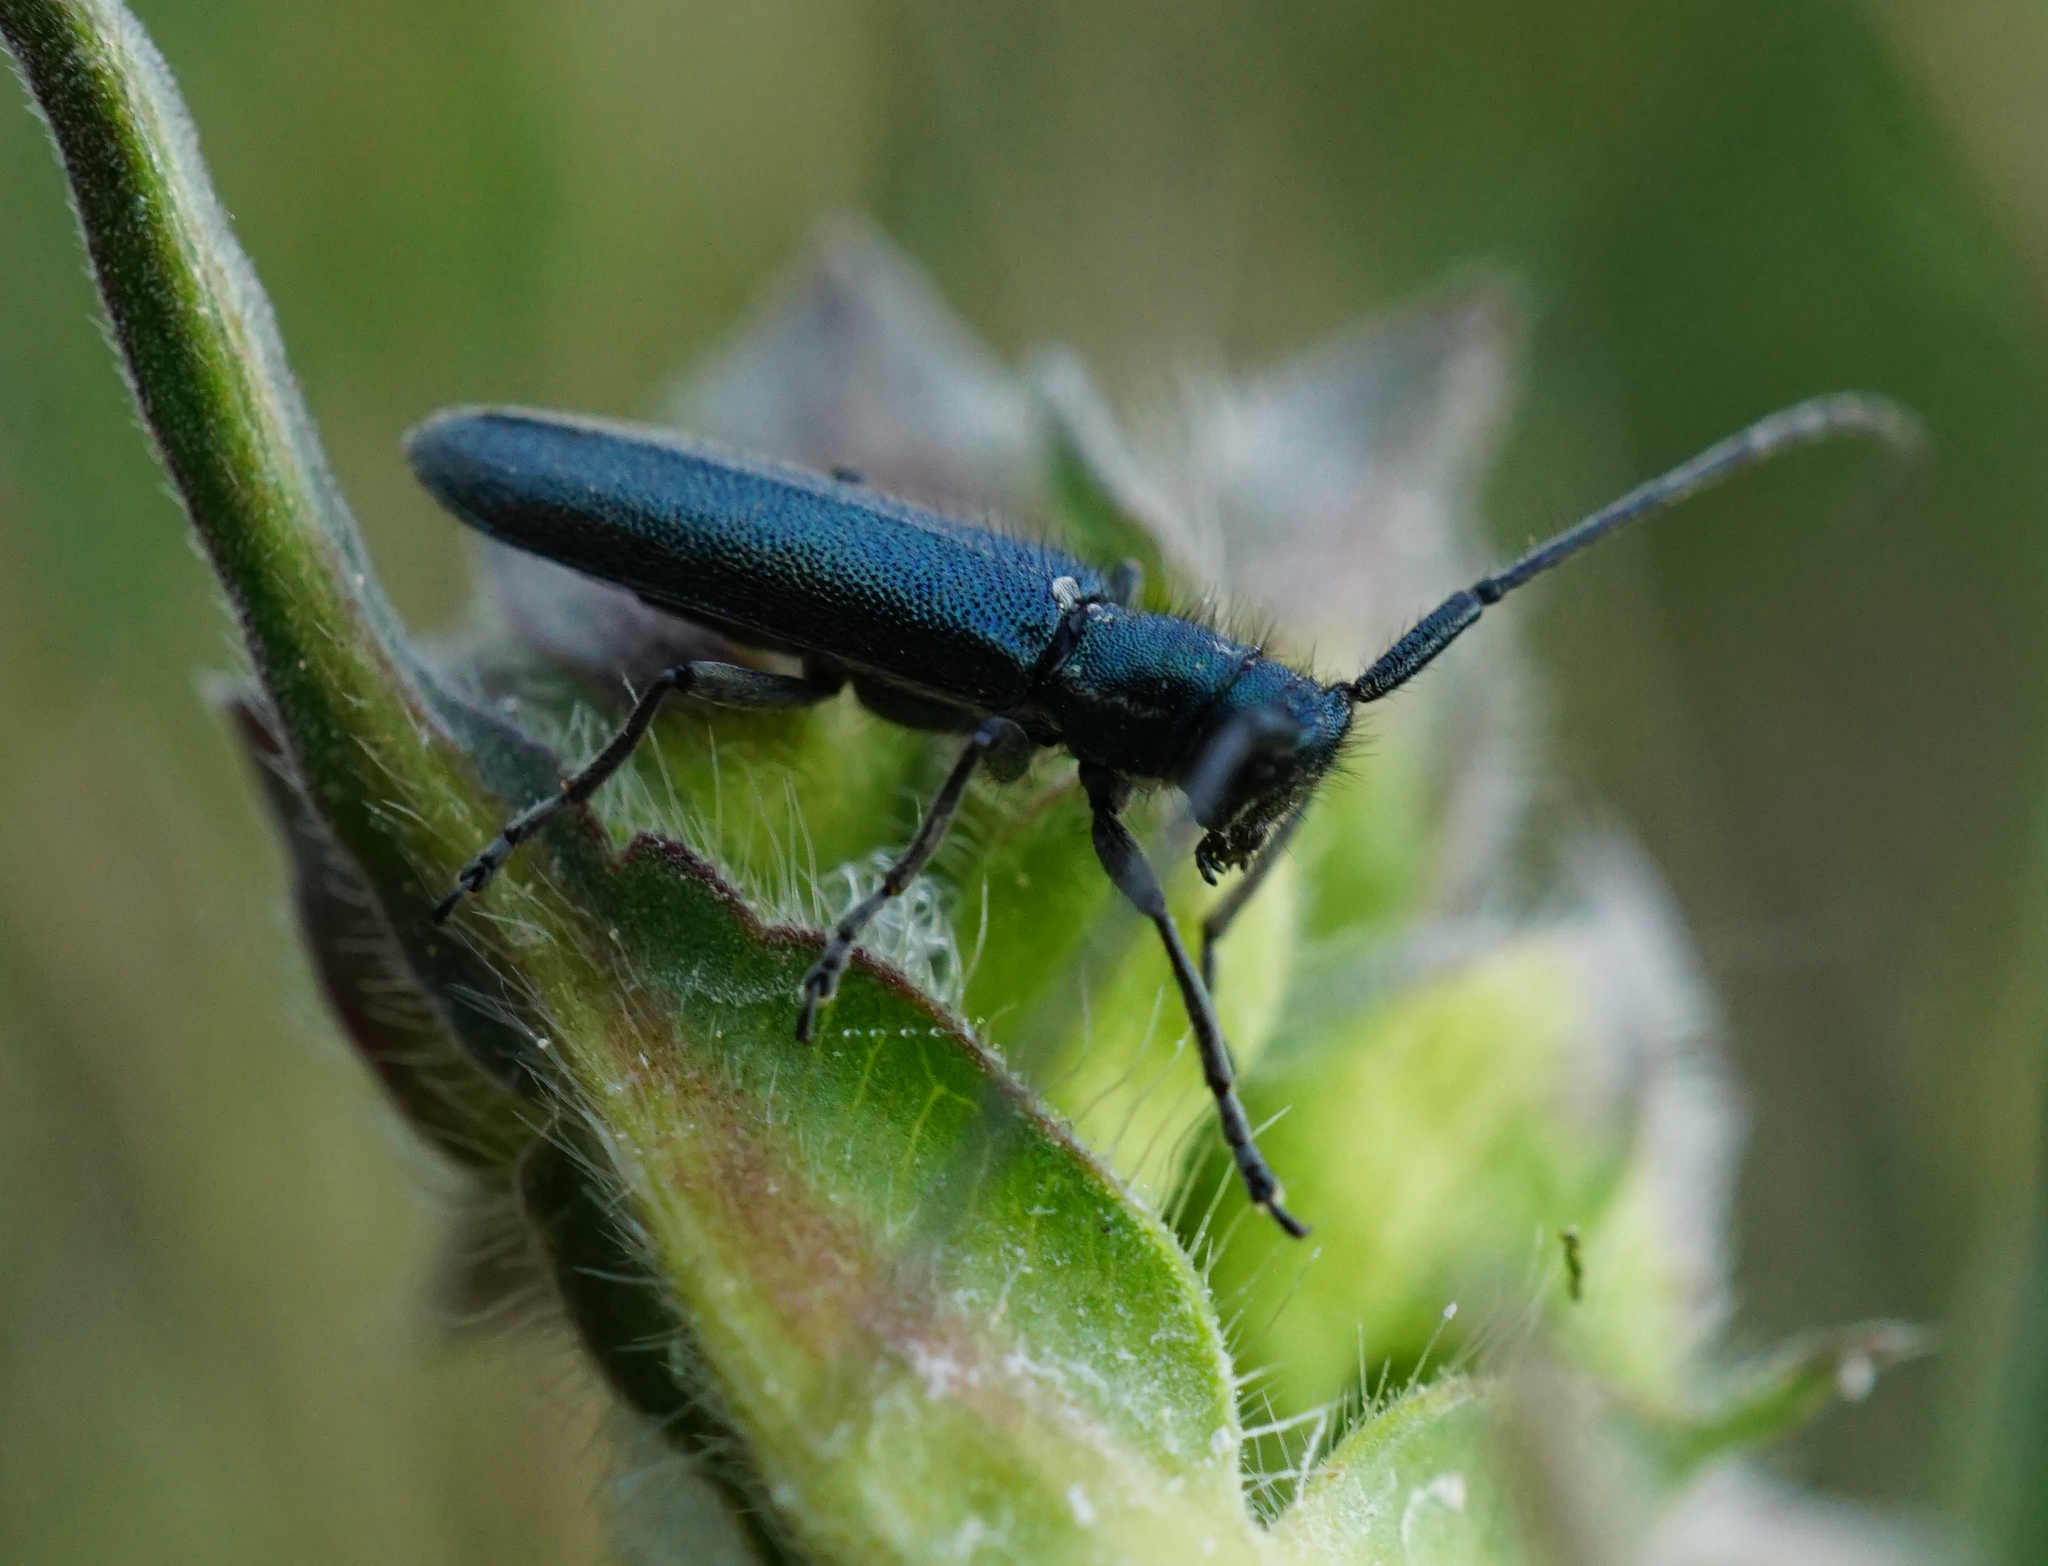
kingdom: Animalia
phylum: Arthropoda
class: Insecta
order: Coleoptera
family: Cerambycidae
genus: Agapanthia
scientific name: Agapanthia intermedia
